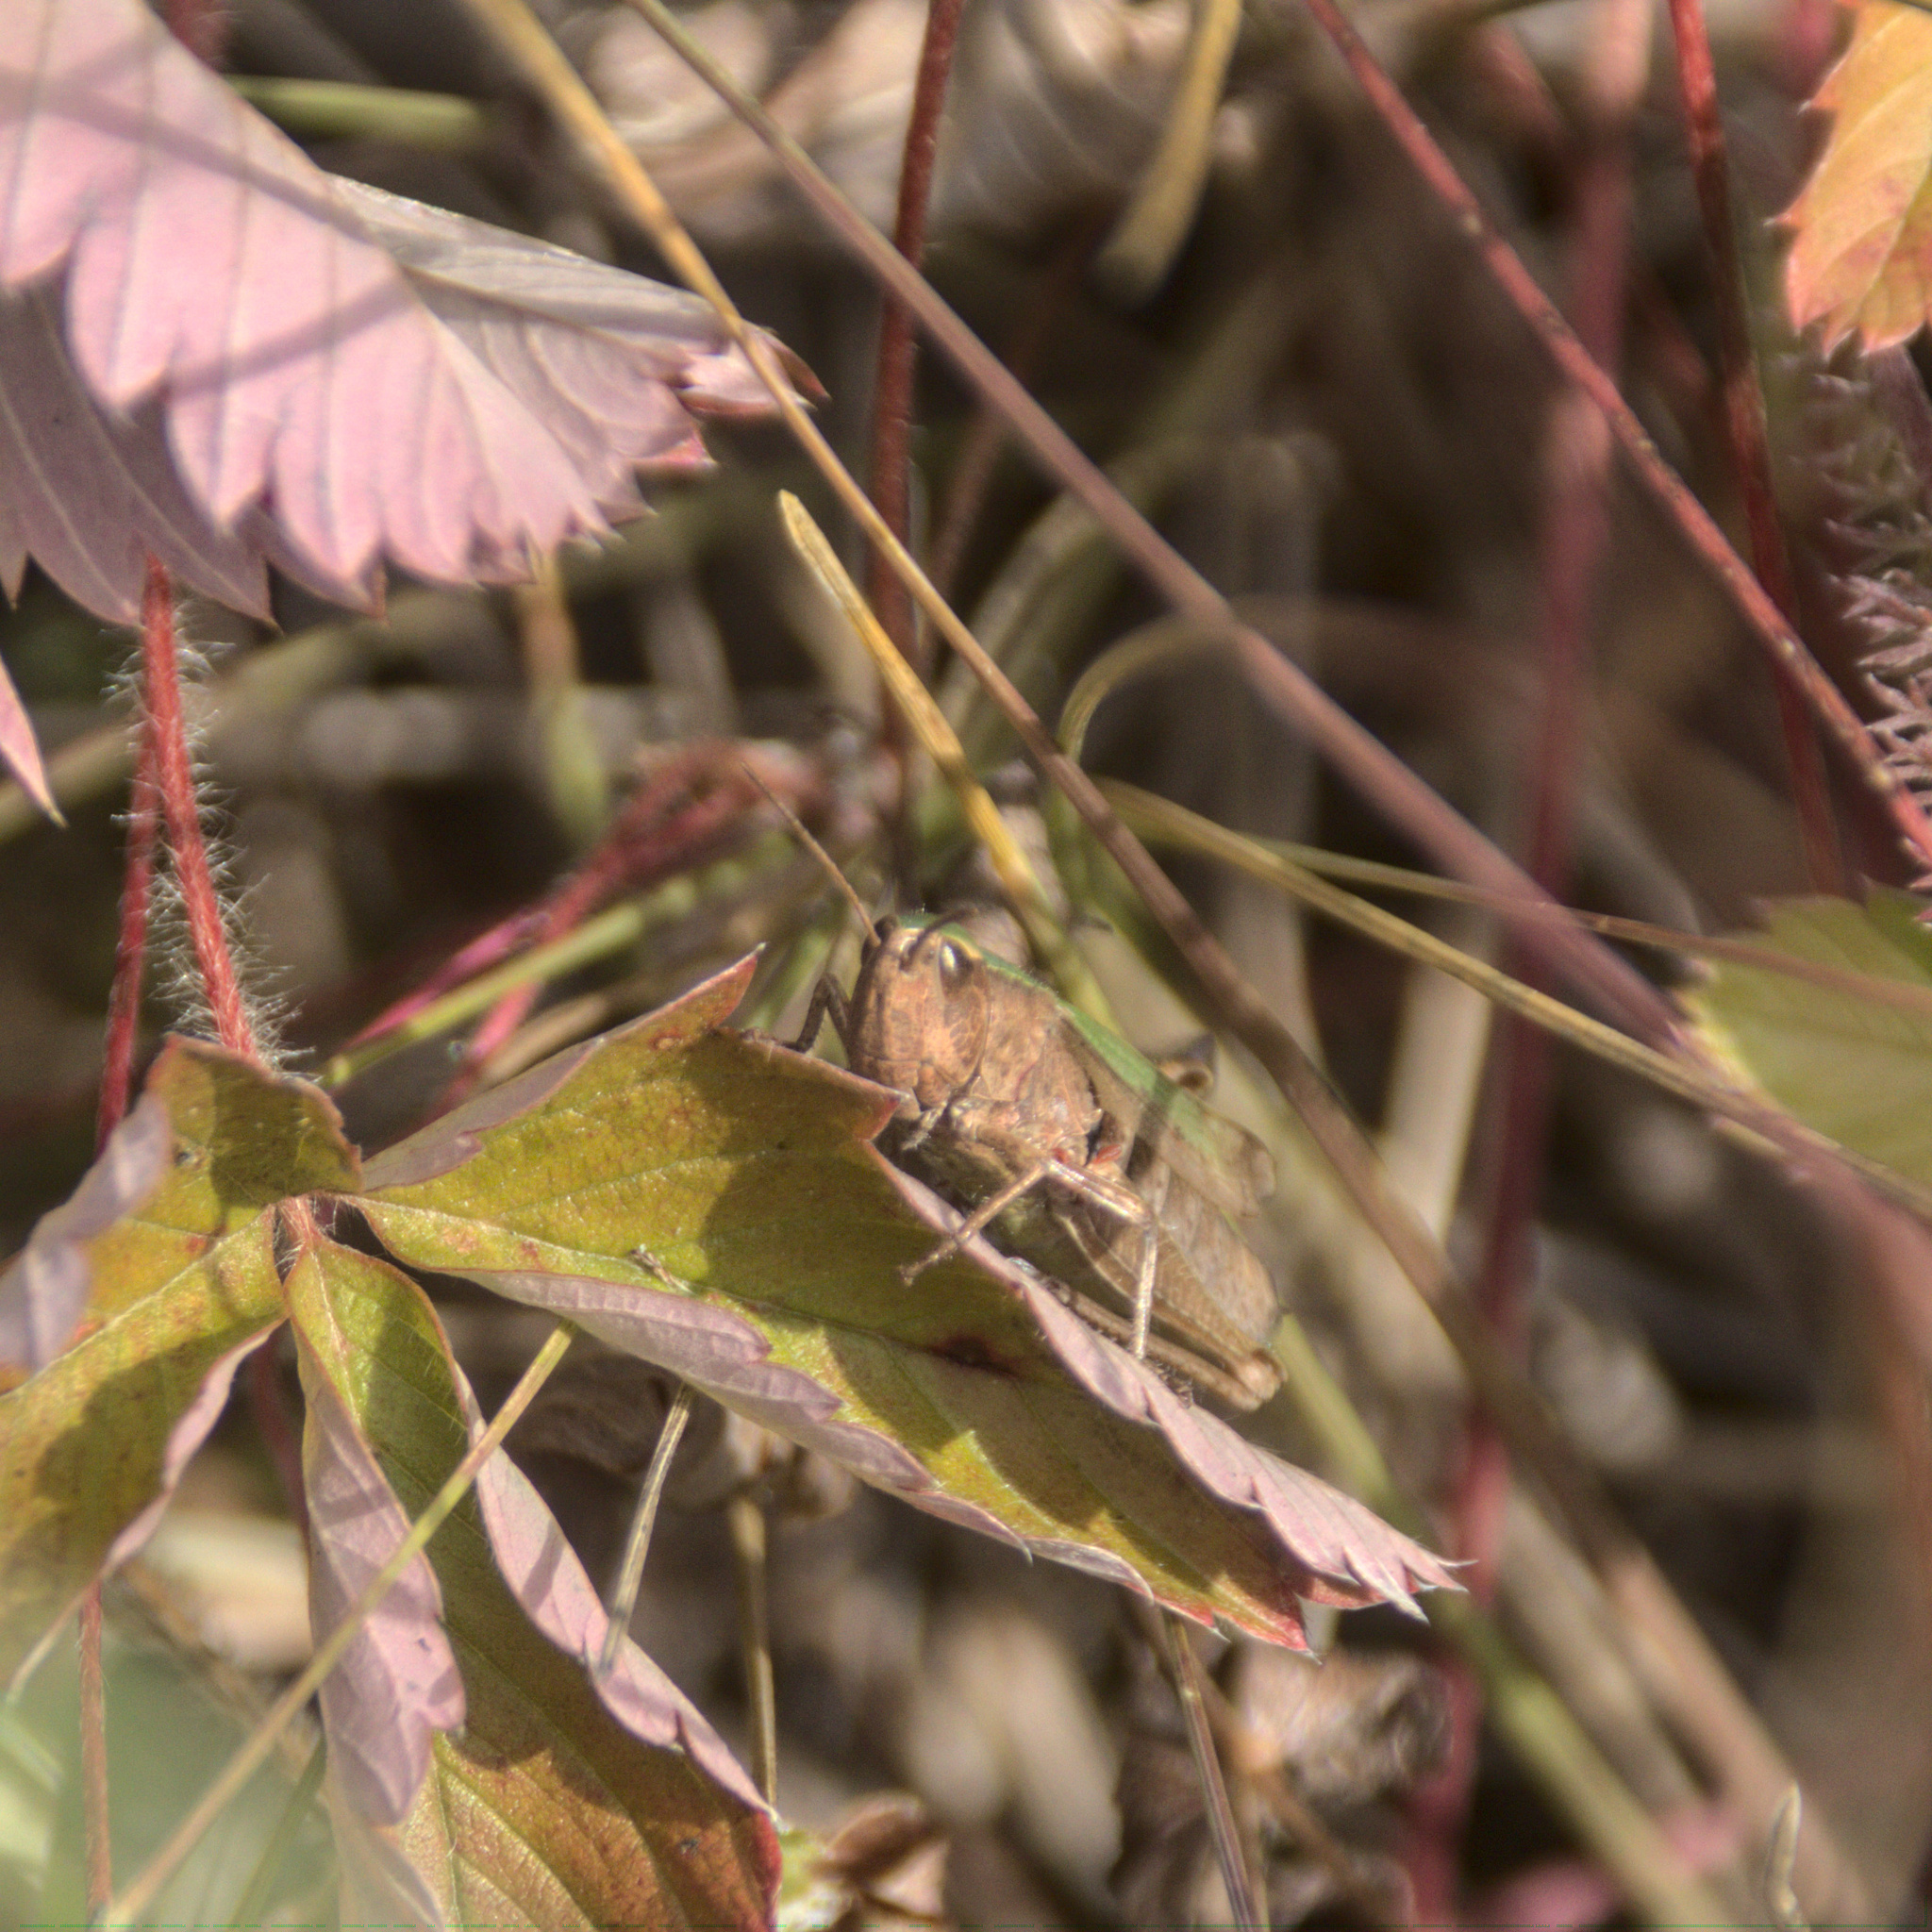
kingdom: Animalia
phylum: Arthropoda
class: Insecta
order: Orthoptera
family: Acrididae
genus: Chorthippus
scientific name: Chorthippus dorsatus
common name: Steppe grasshopper
